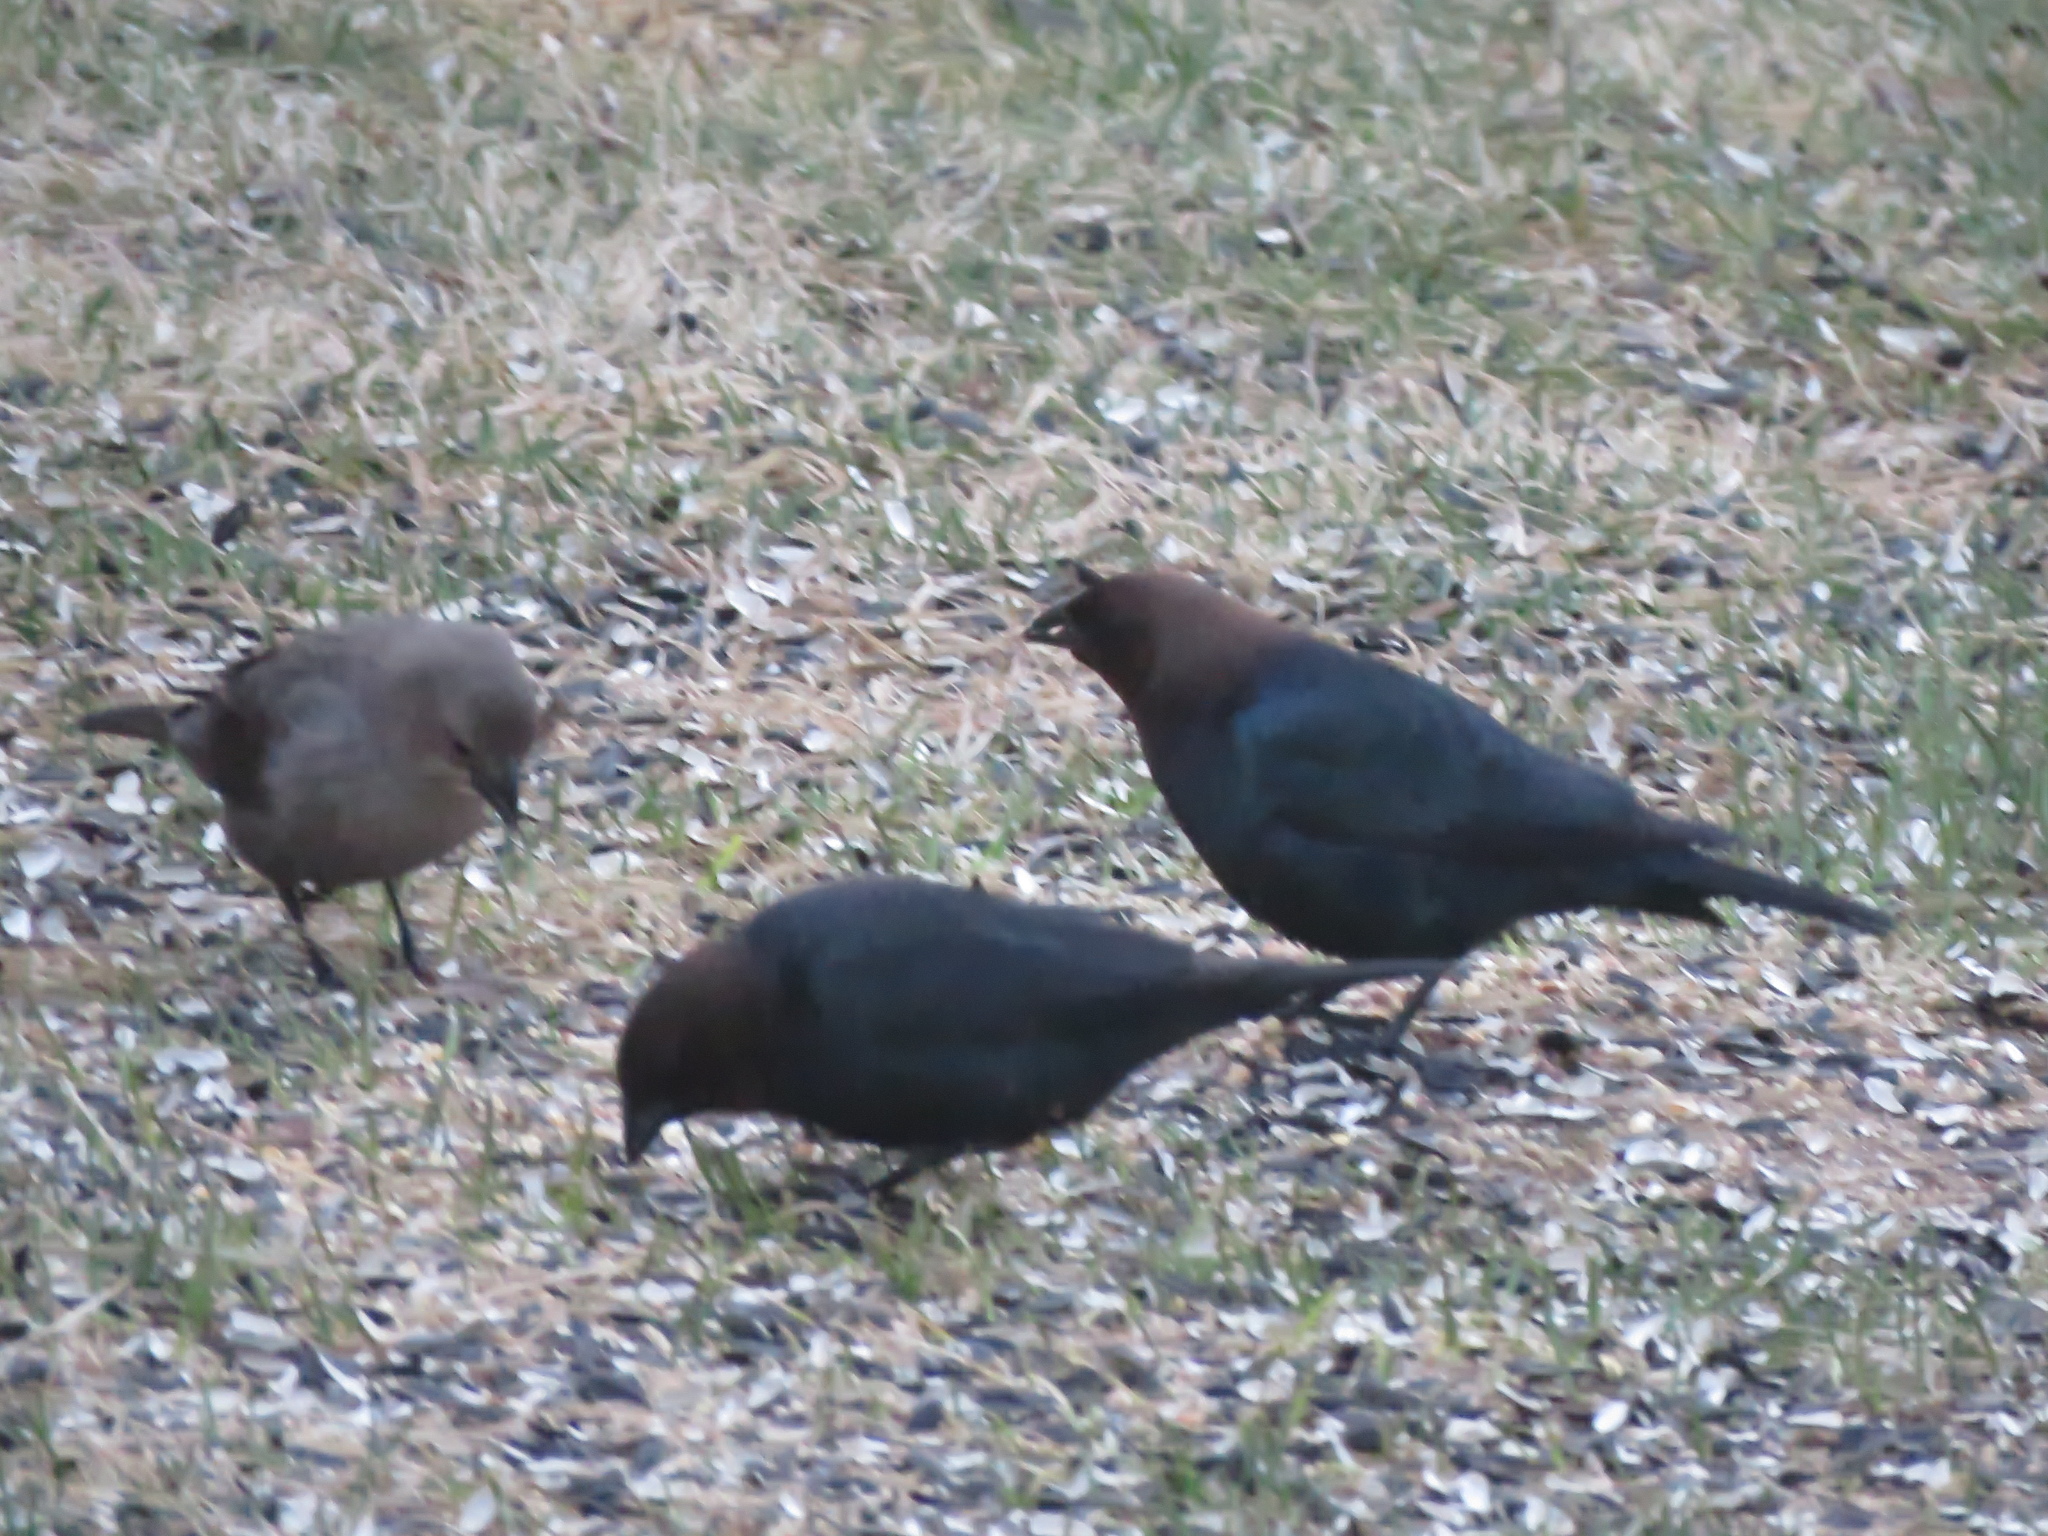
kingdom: Animalia
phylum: Chordata
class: Aves
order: Passeriformes
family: Icteridae
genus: Molothrus
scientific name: Molothrus ater
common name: Brown-headed cowbird
